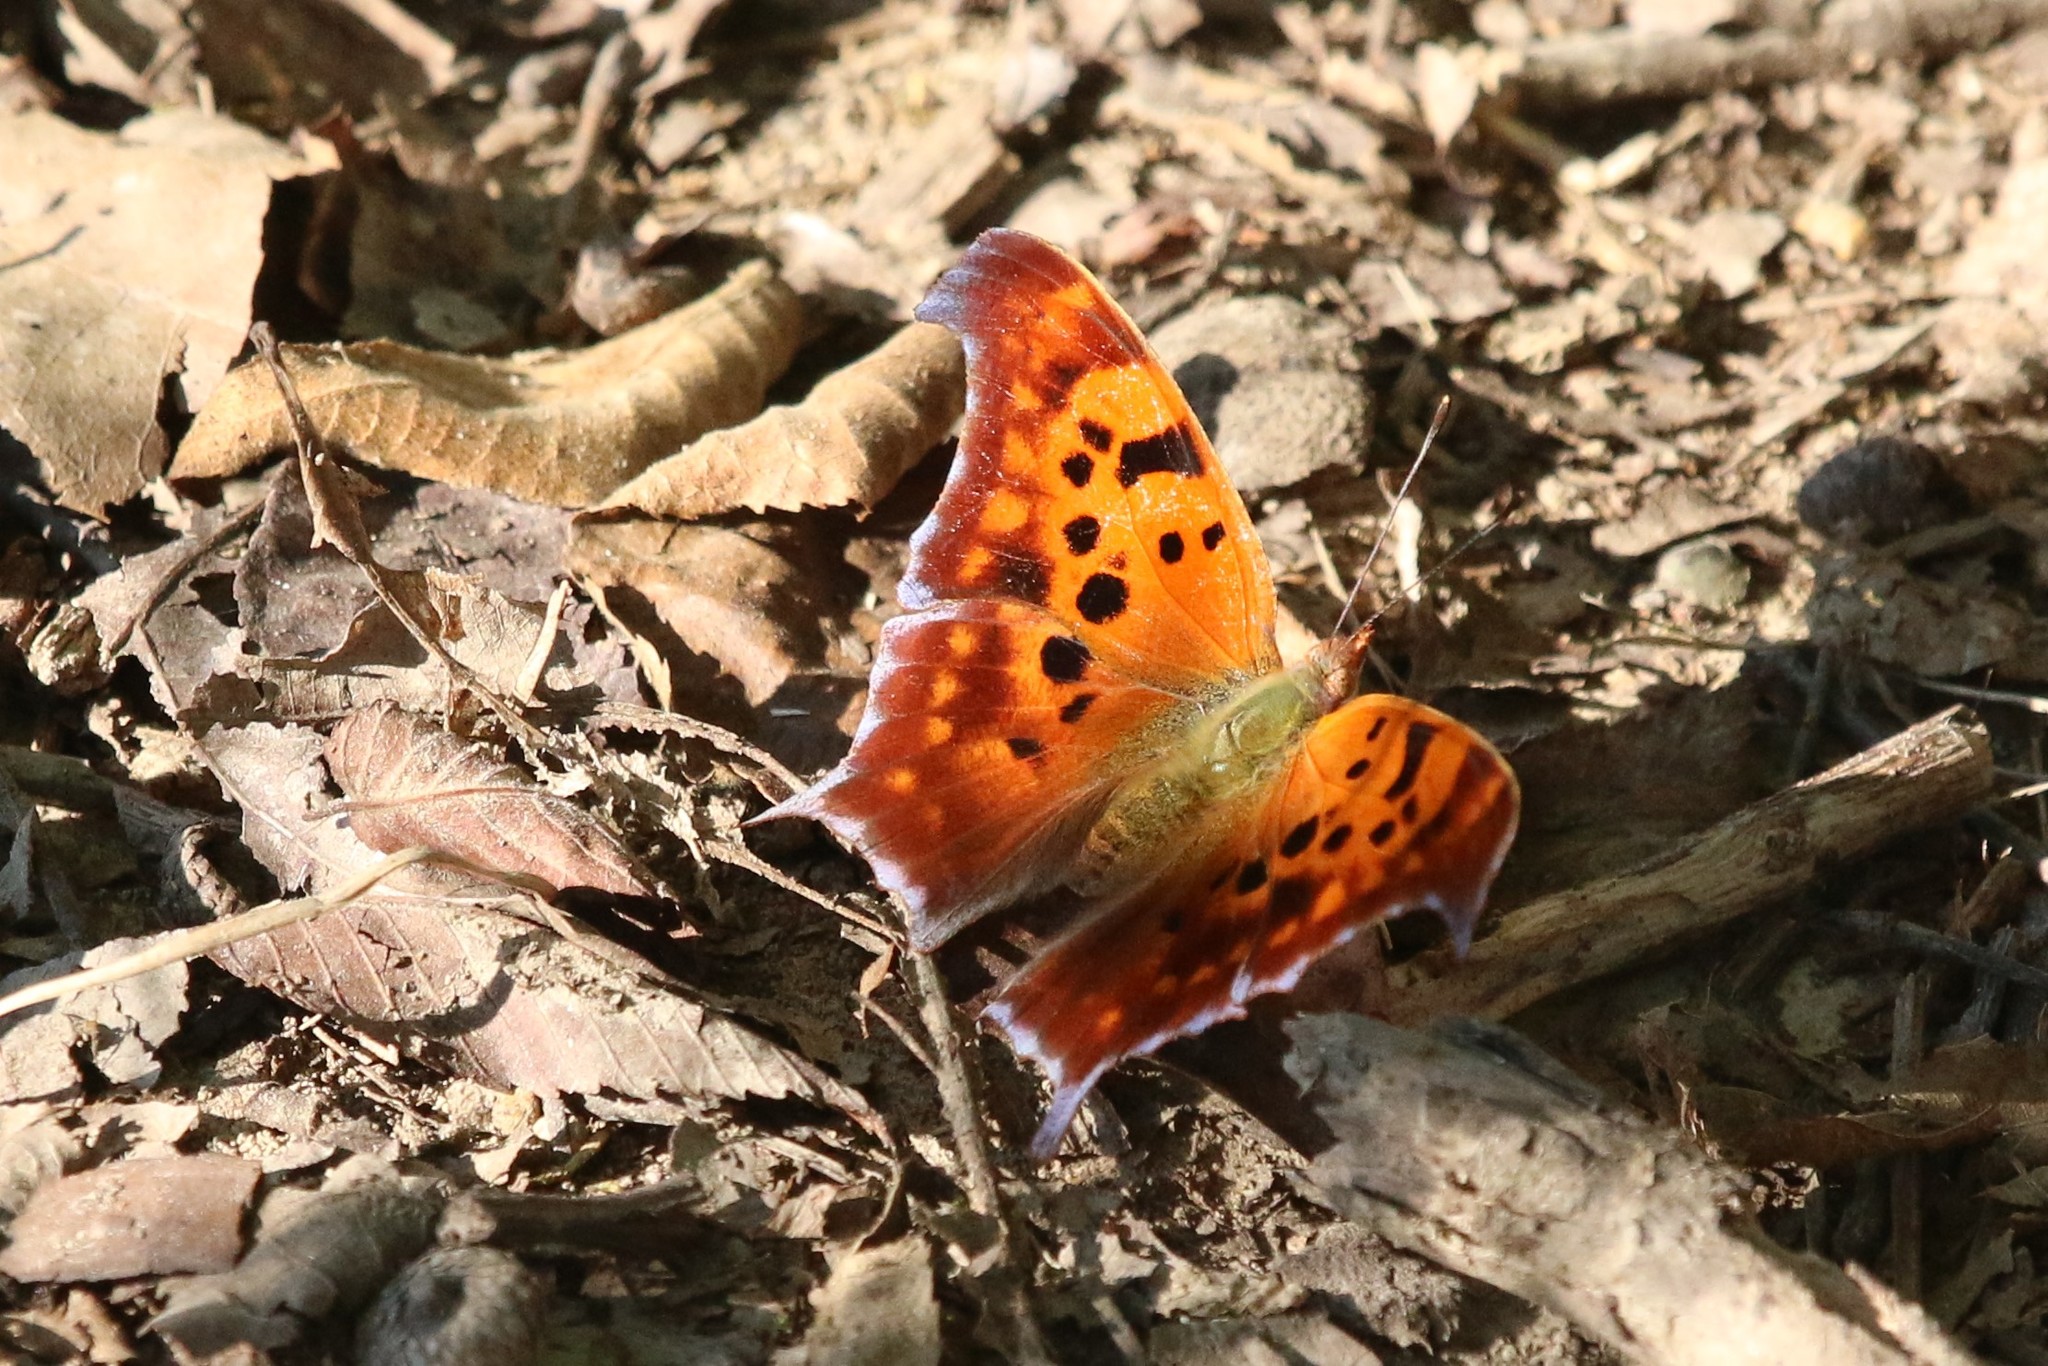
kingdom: Animalia
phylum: Arthropoda
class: Insecta
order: Lepidoptera
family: Nymphalidae
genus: Polygonia
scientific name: Polygonia interrogationis
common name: Question mark
